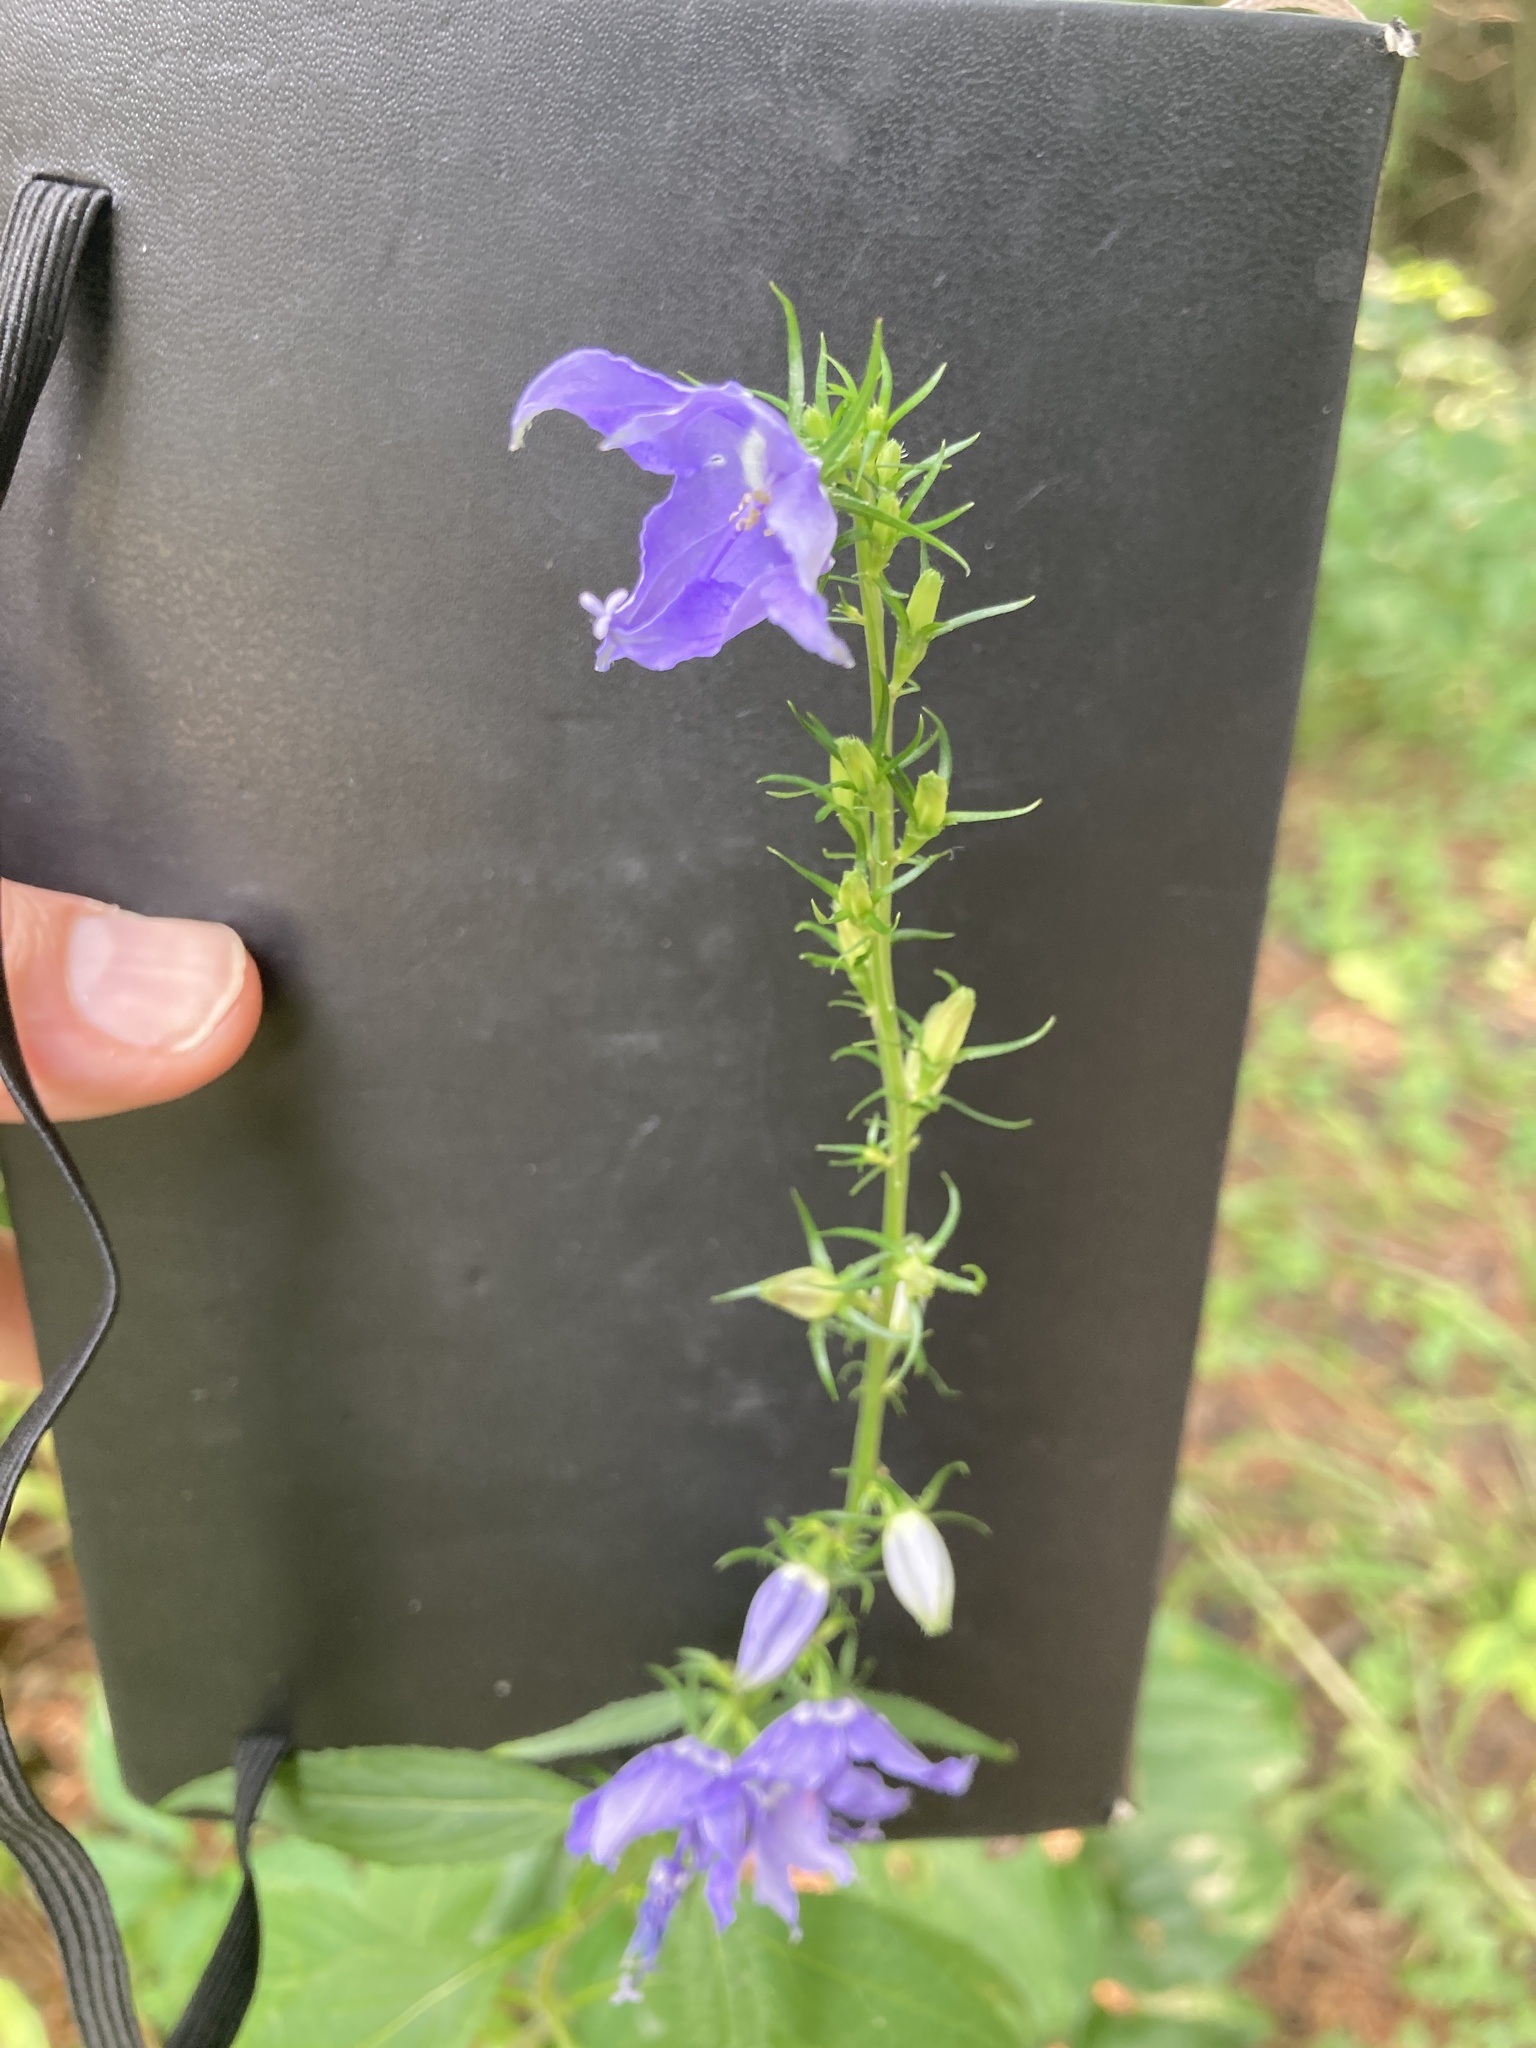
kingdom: Plantae
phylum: Tracheophyta
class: Magnoliopsida
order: Asterales
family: Campanulaceae
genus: Campanulastrum
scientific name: Campanulastrum americanum
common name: American bellflower
